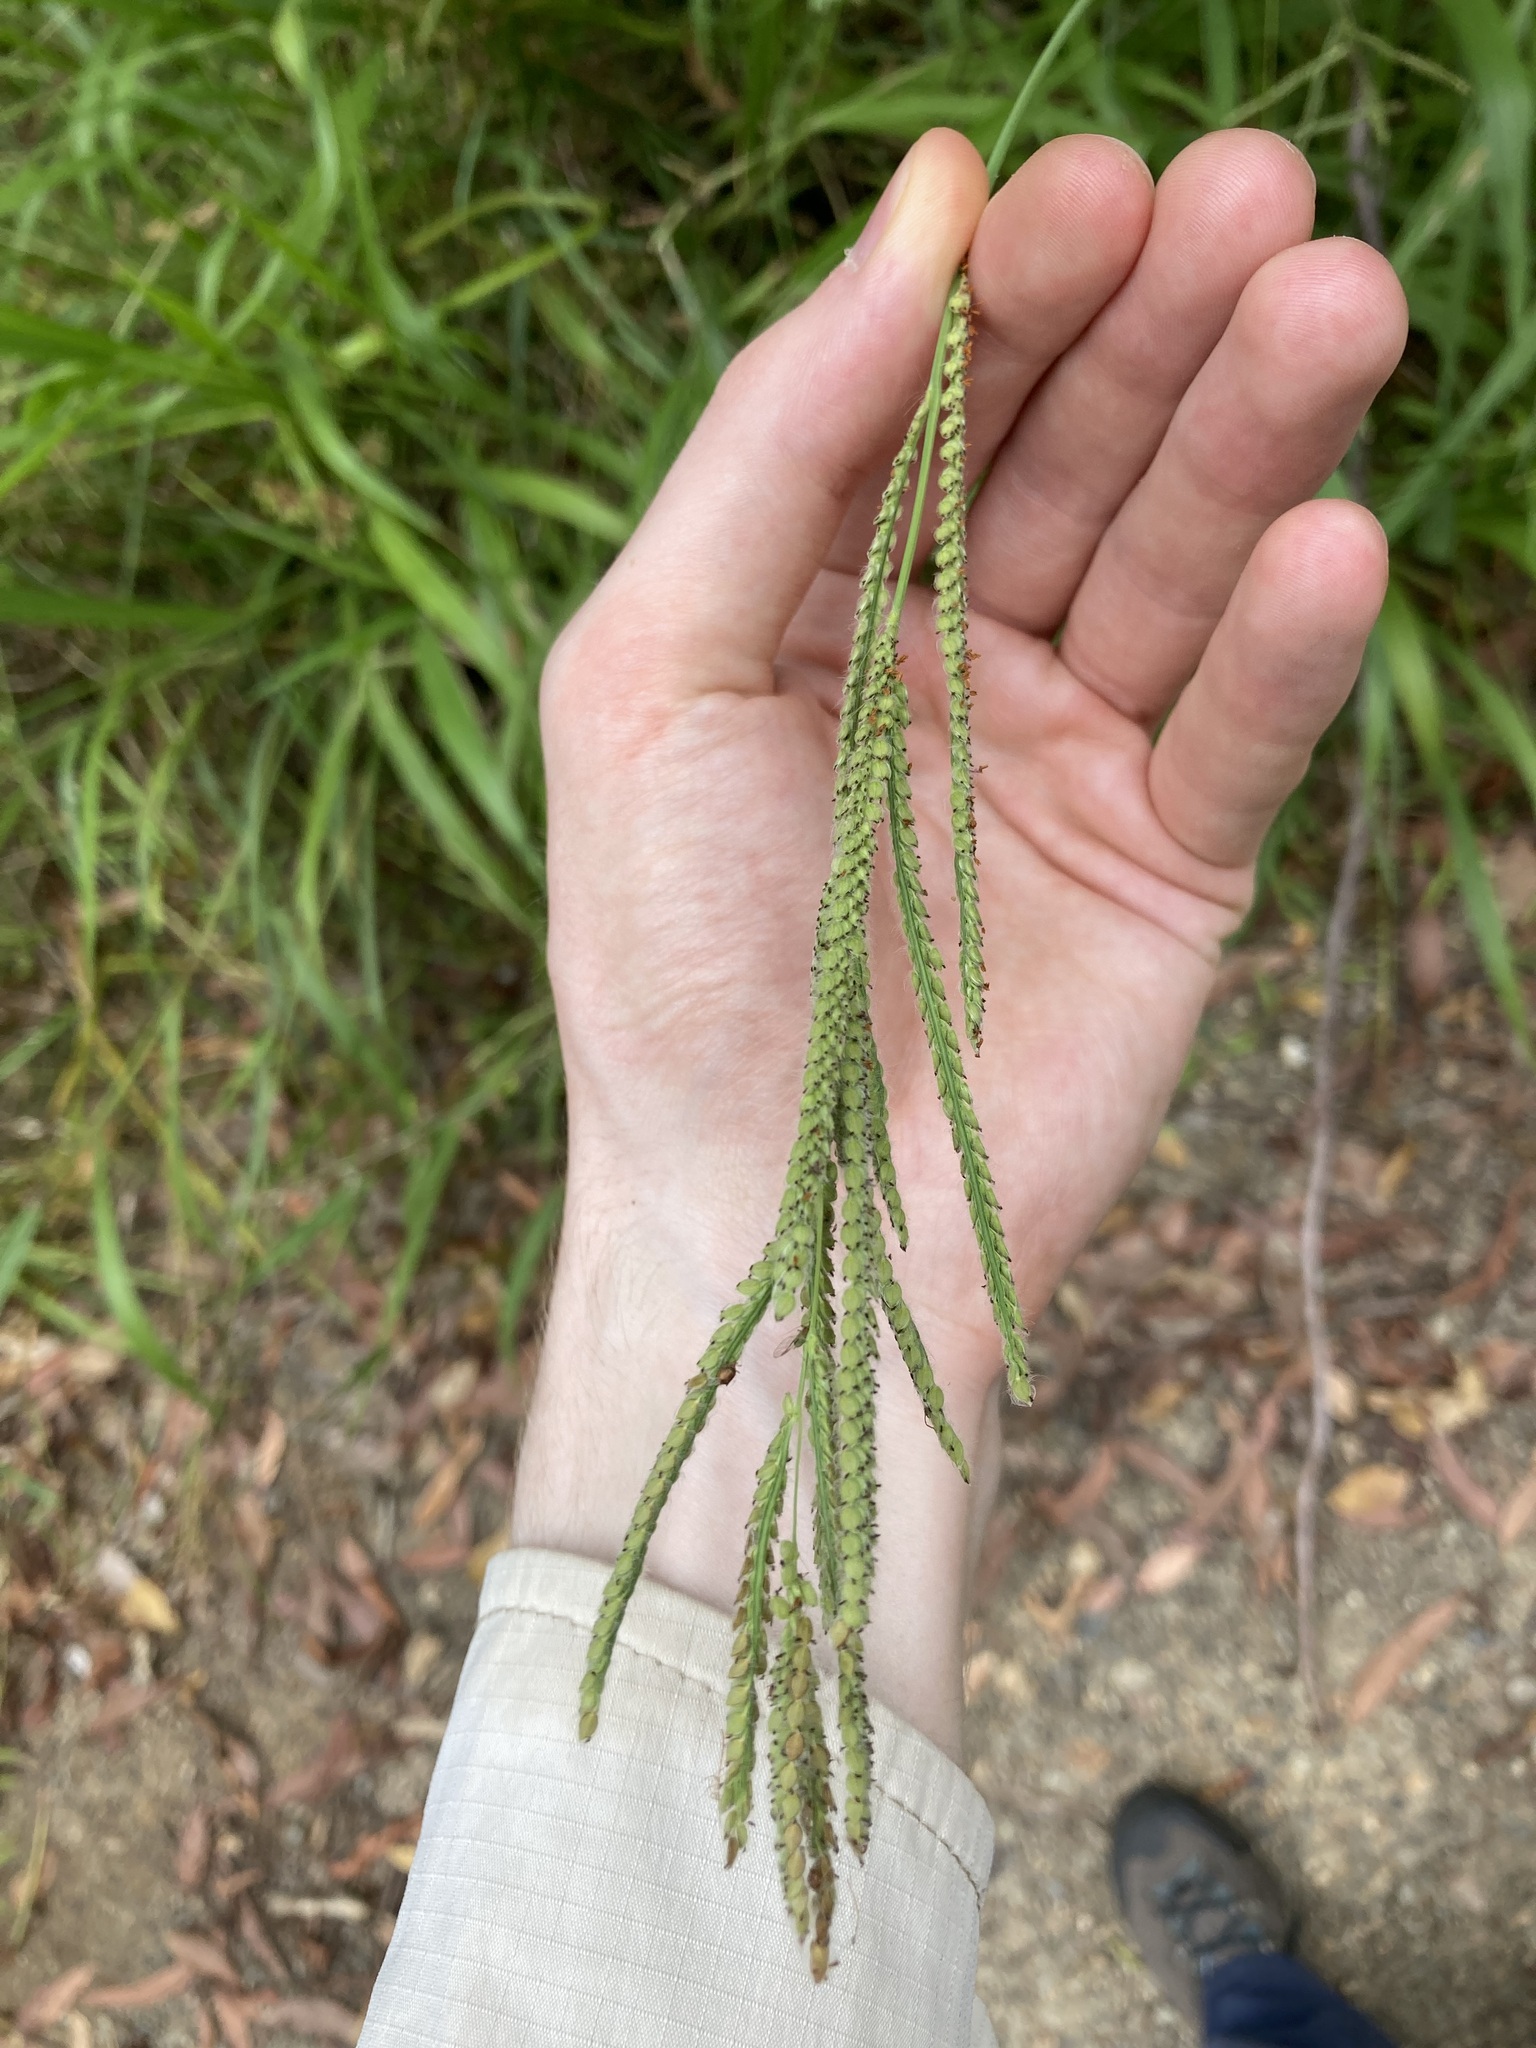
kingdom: Plantae
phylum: Tracheophyta
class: Liliopsida
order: Poales
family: Poaceae
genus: Paspalum
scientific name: Paspalum urvillei
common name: Vasey's grass
